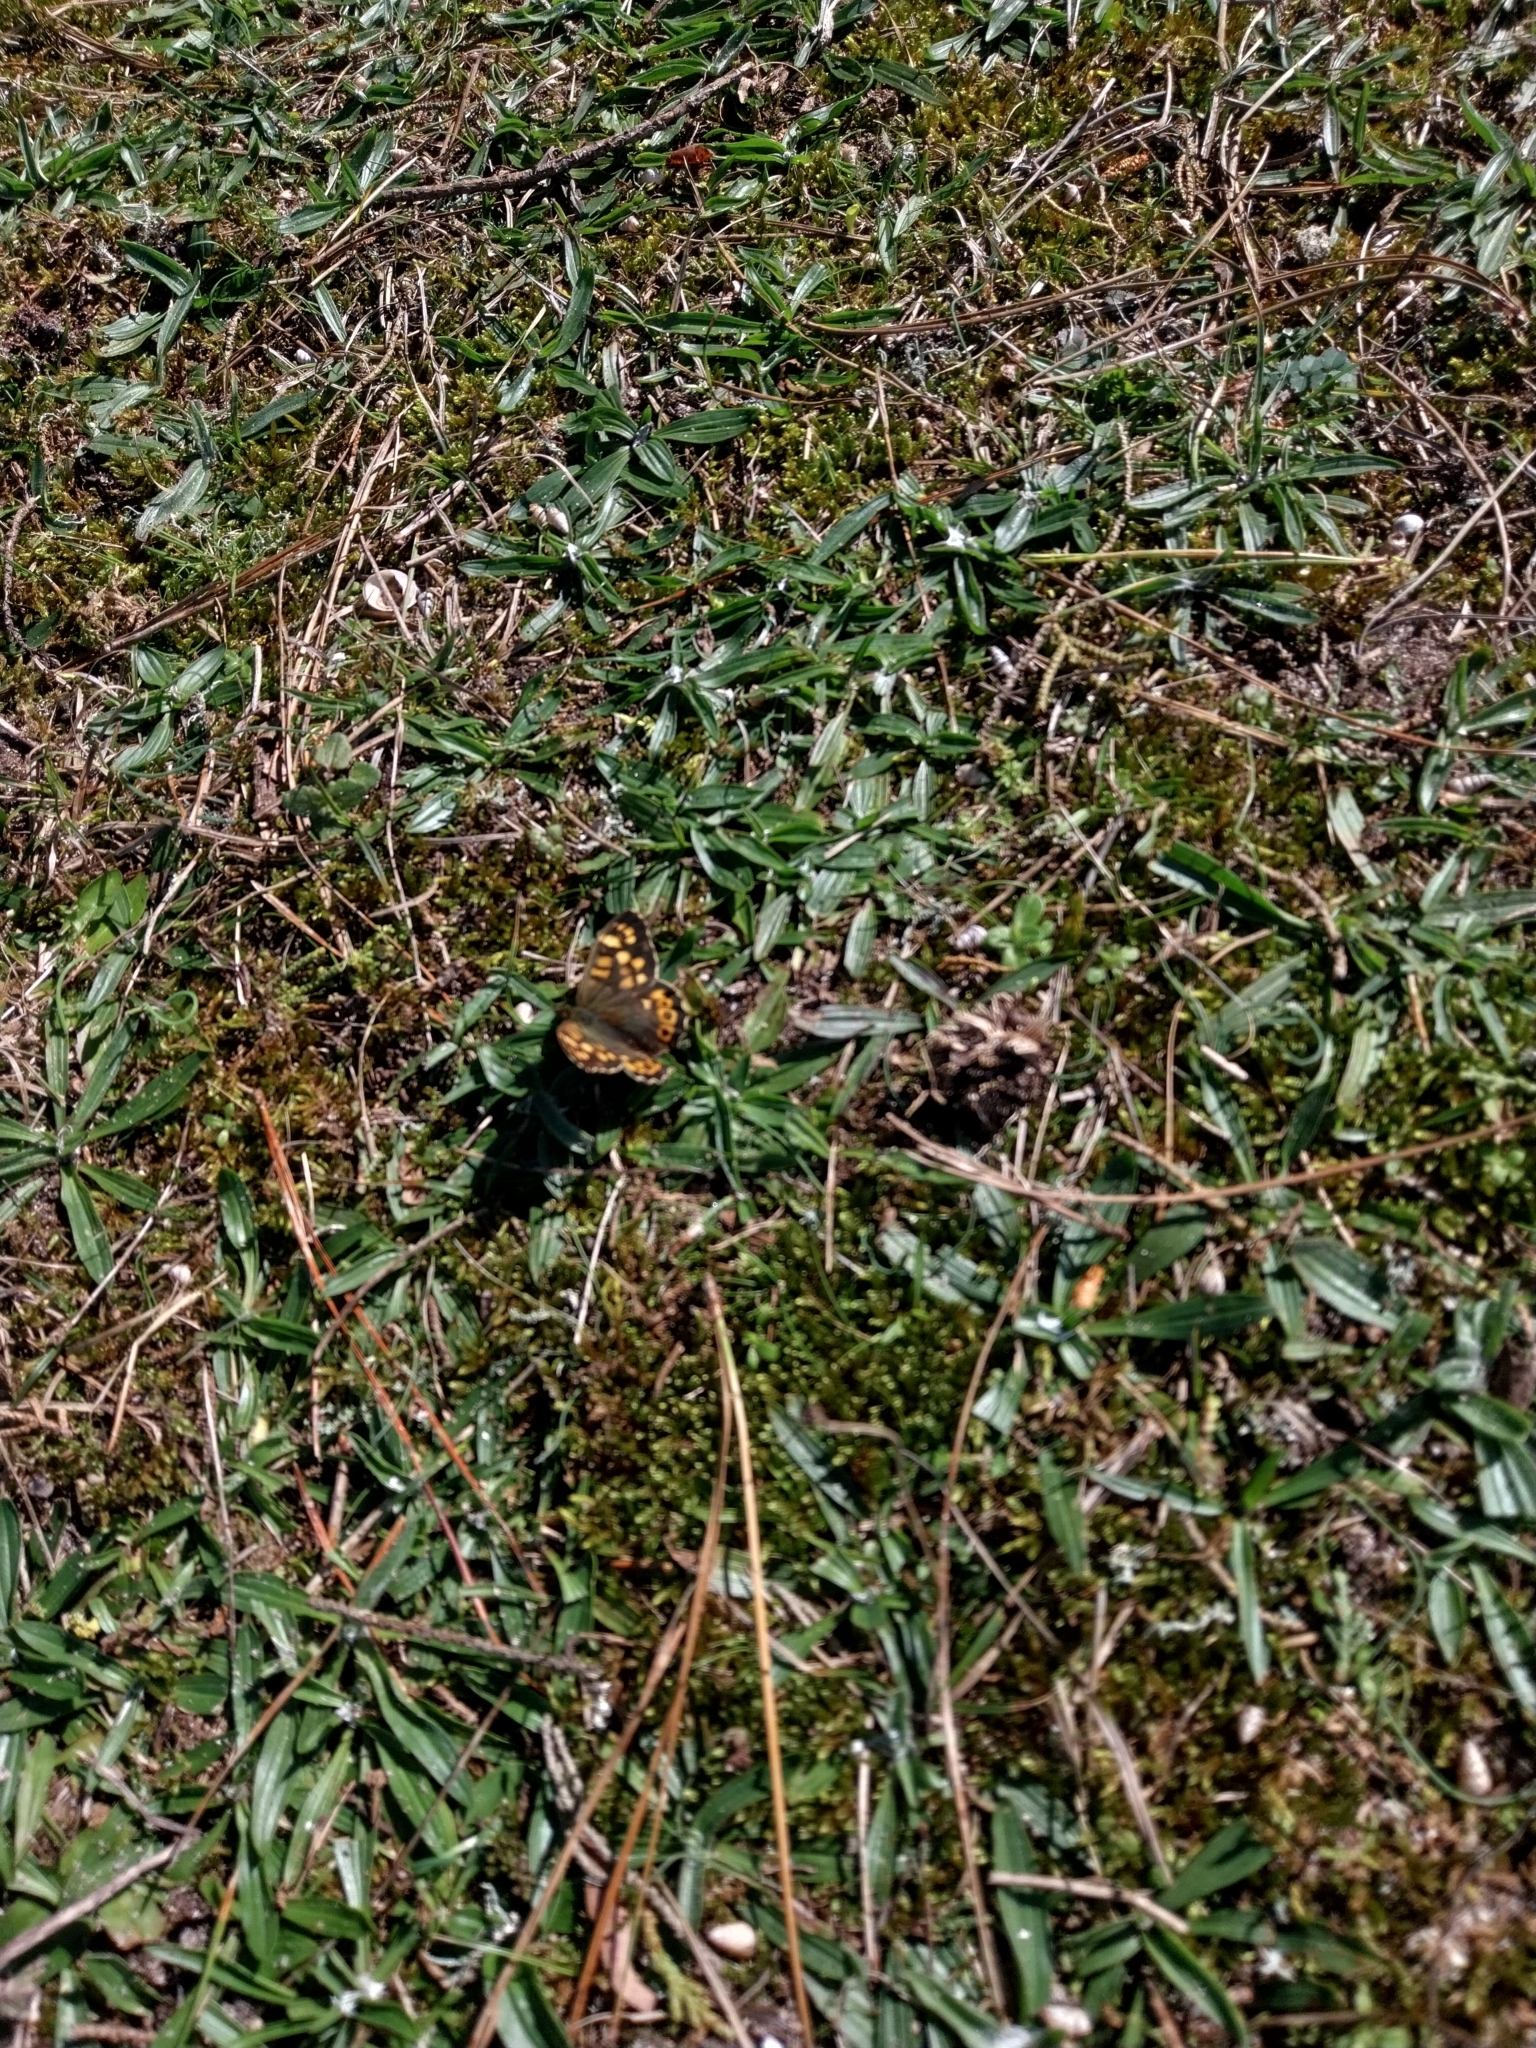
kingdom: Animalia
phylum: Arthropoda
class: Insecta
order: Lepidoptera
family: Nymphalidae
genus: Pararge
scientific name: Pararge aegeria
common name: Speckled wood
